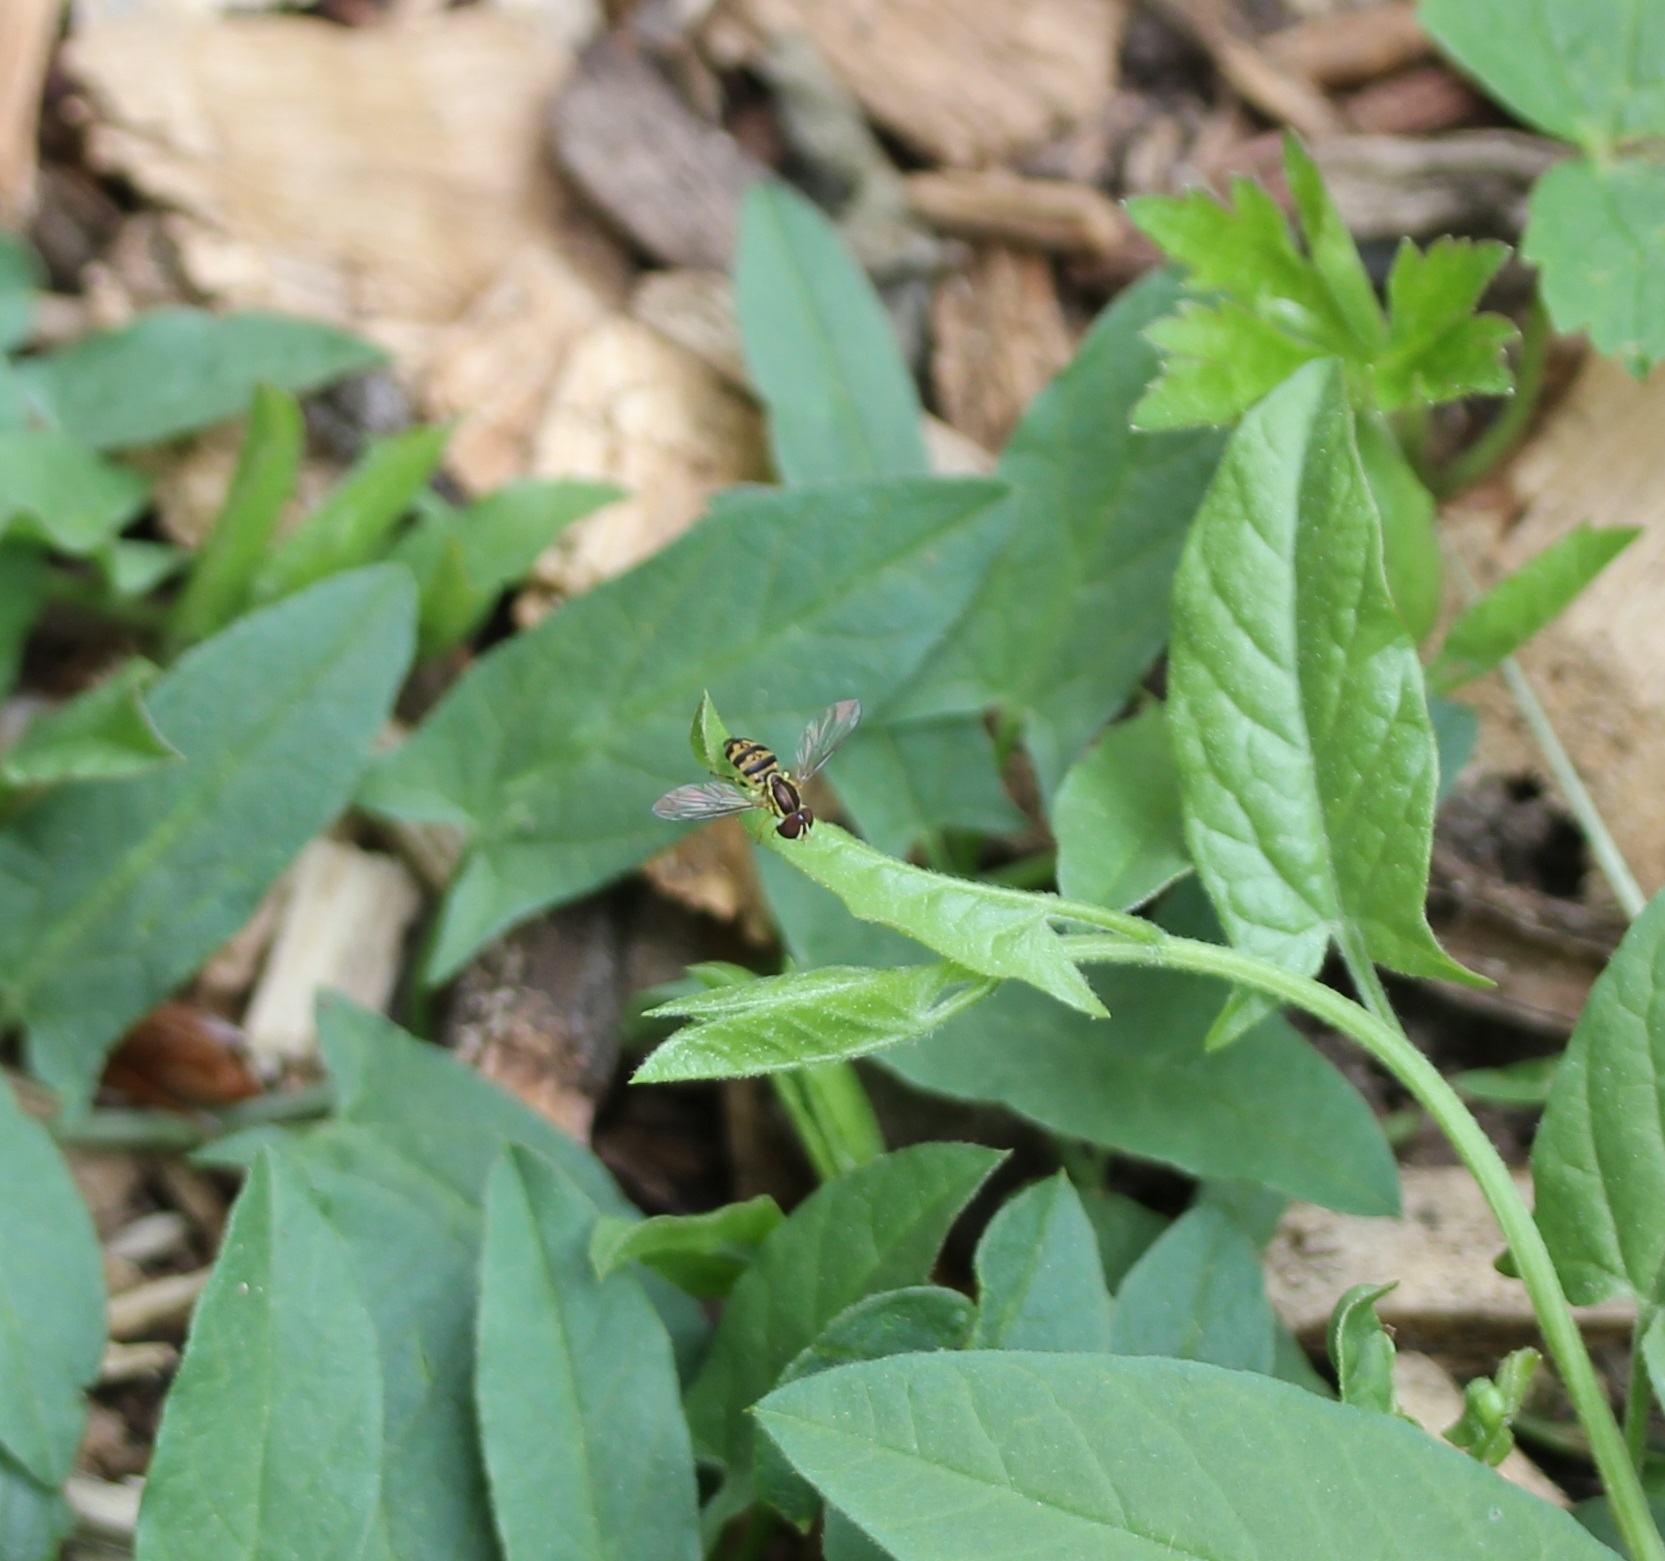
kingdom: Animalia
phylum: Arthropoda
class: Insecta
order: Diptera
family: Syrphidae
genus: Toxomerus
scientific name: Toxomerus geminatus
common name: Eastern calligrapher
